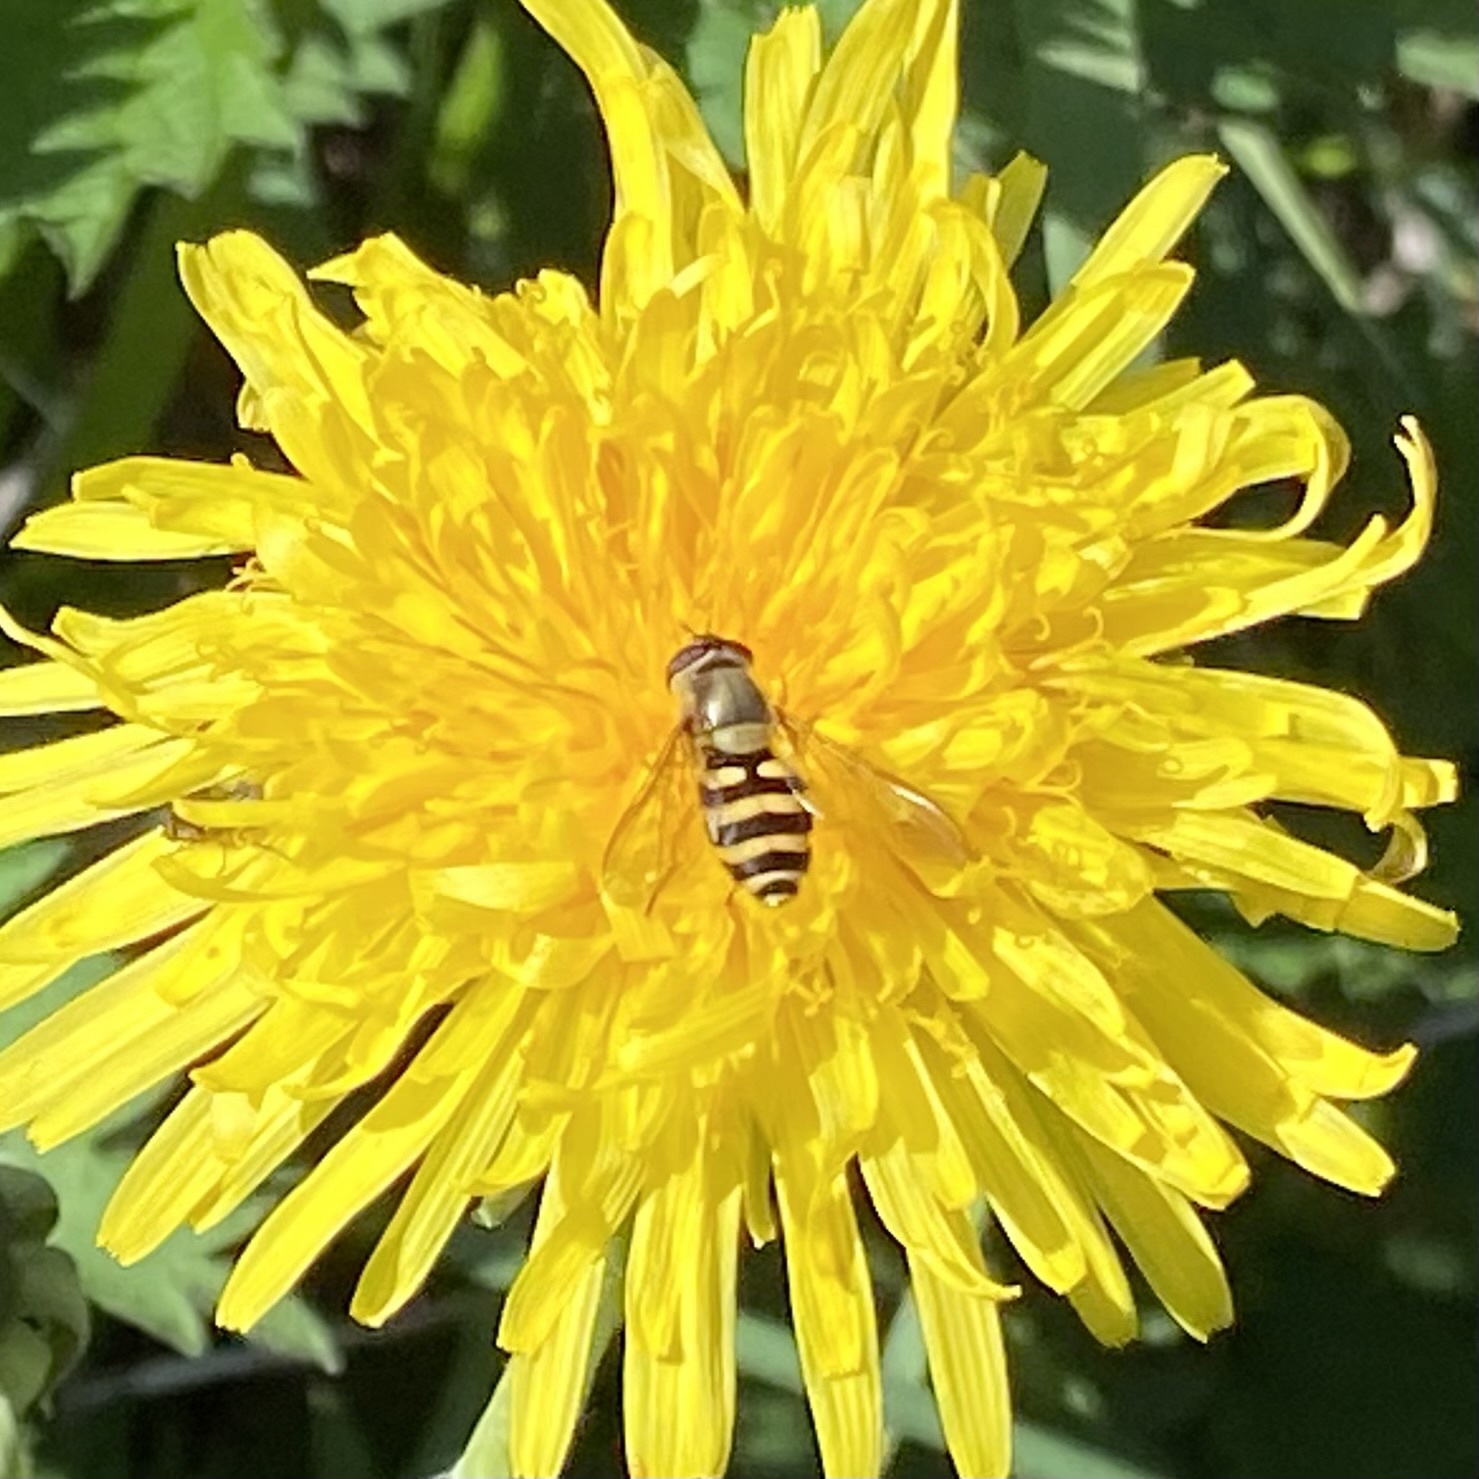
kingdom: Animalia
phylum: Arthropoda
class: Insecta
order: Diptera
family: Syrphidae
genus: Syrphus
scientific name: Syrphus ribesii
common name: Common flower fly
